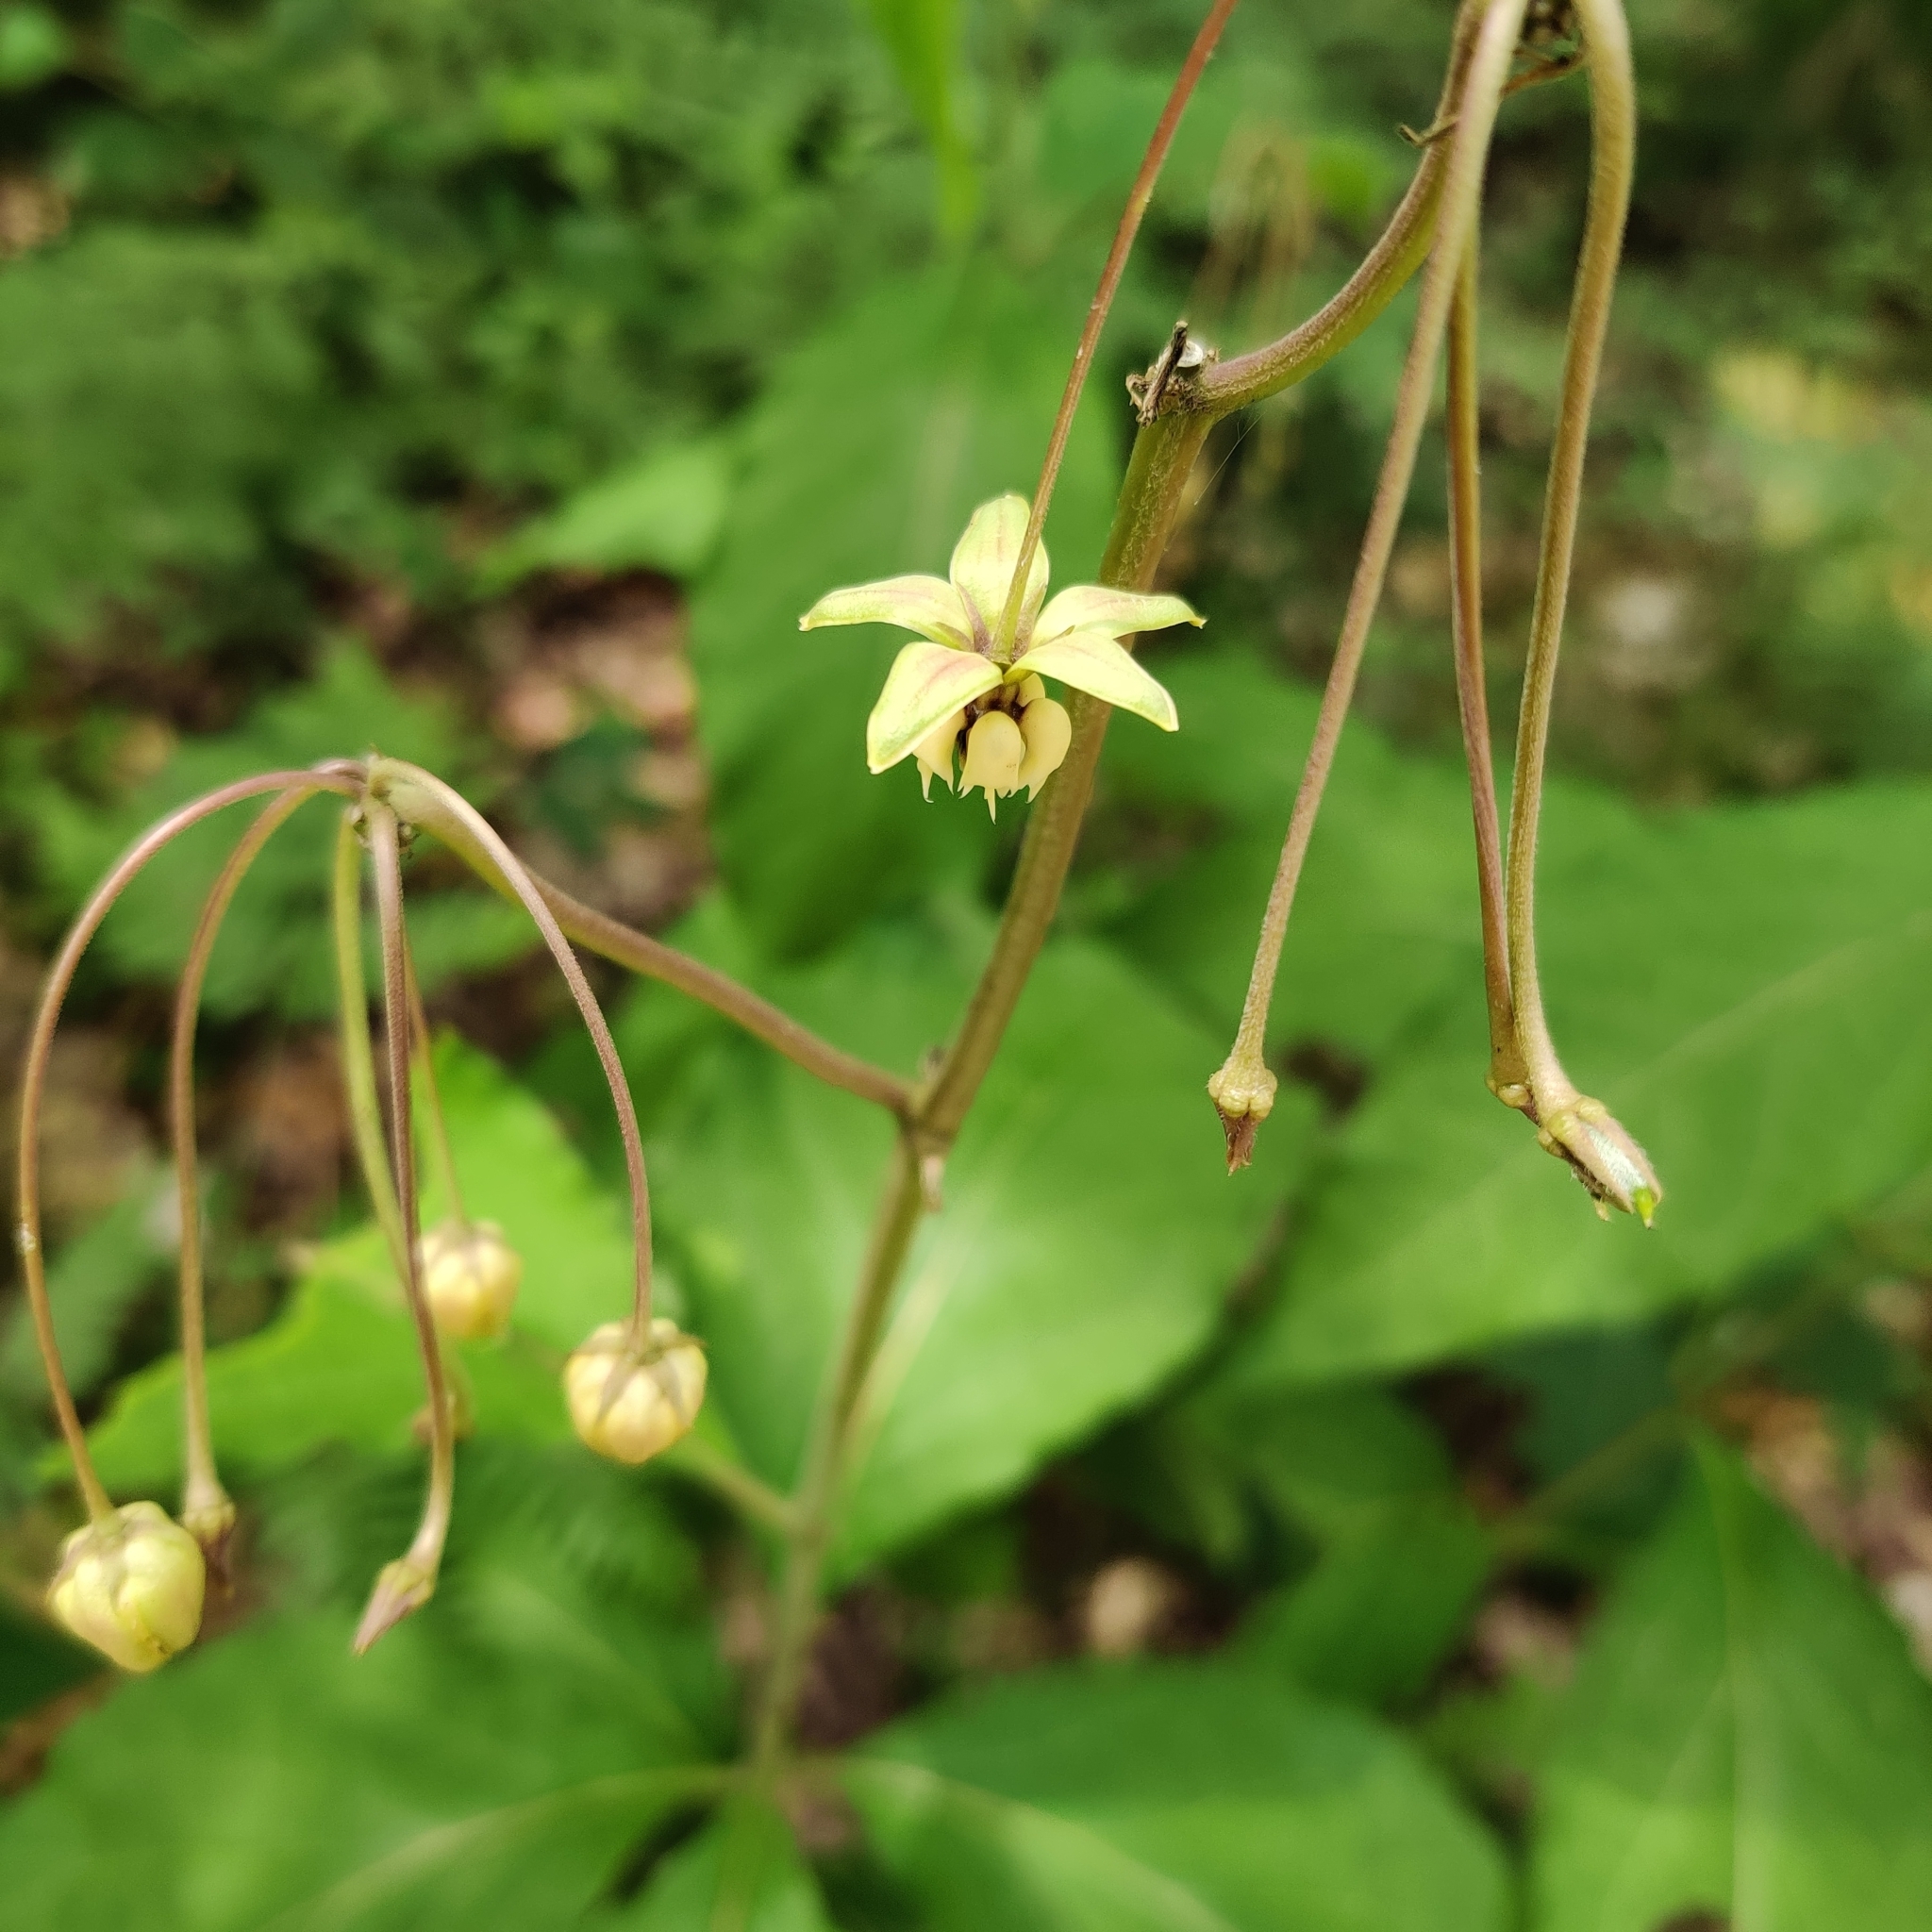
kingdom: Plantae
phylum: Tracheophyta
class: Magnoliopsida
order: Gentianales
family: Apocynaceae
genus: Asclepias
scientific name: Asclepias exaltata
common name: Poke milkweed
